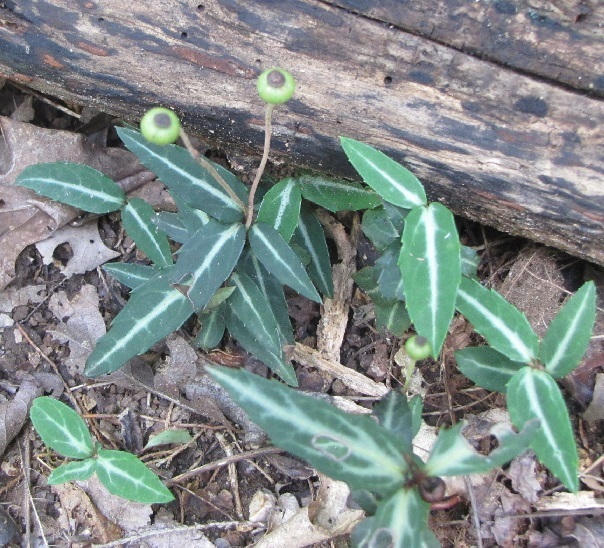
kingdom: Plantae
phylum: Tracheophyta
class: Magnoliopsida
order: Ericales
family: Ericaceae
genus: Chimaphila
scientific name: Chimaphila maculata
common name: Spotted pipsissewa
